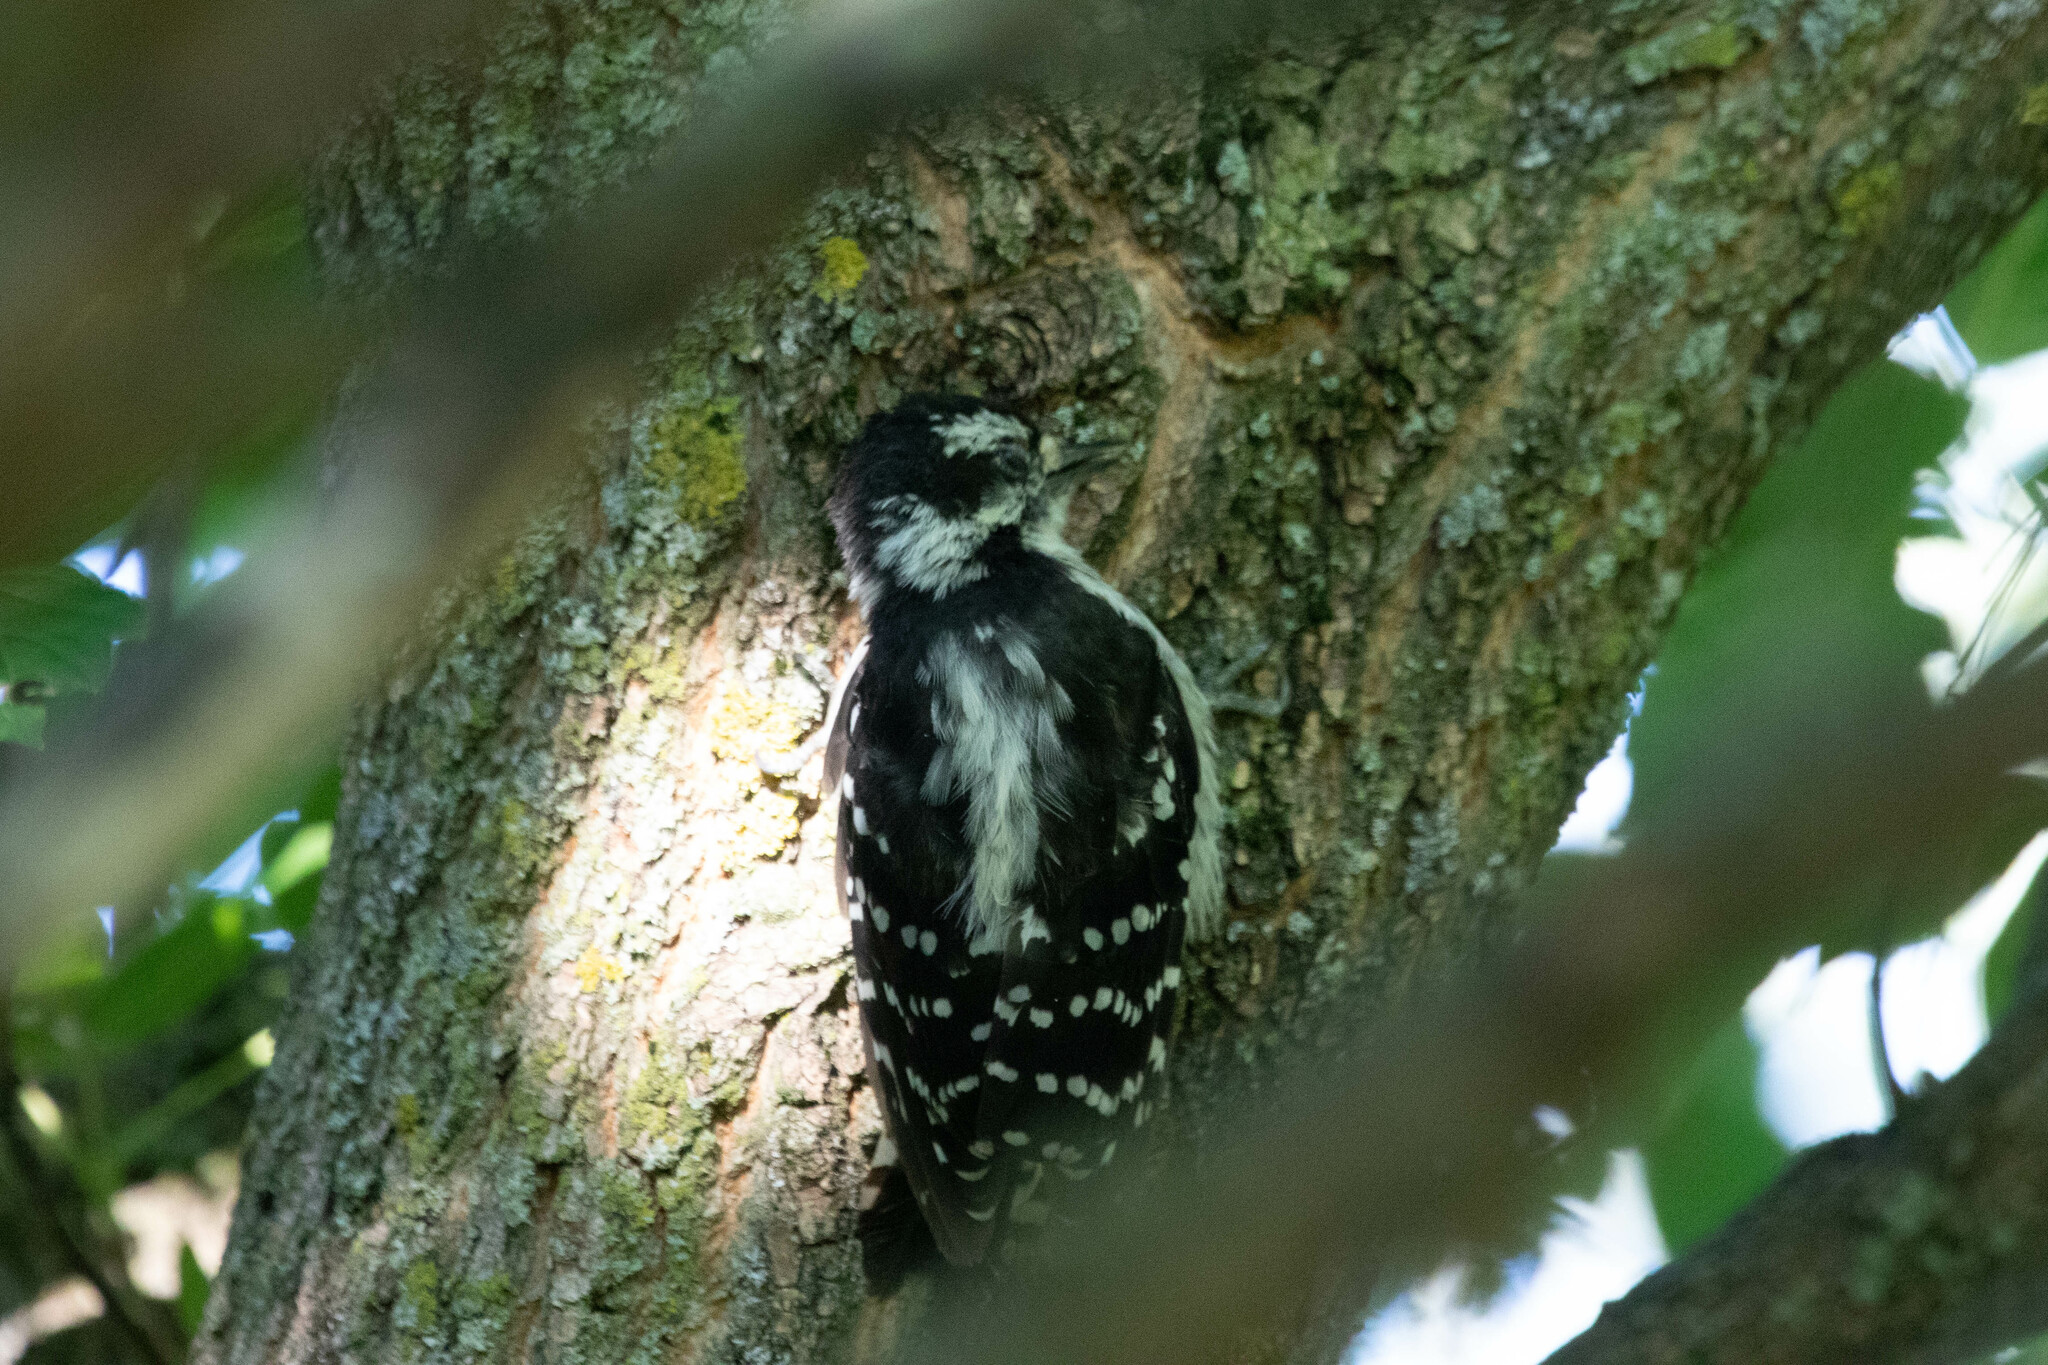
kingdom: Animalia
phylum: Chordata
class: Aves
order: Piciformes
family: Picidae
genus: Dryobates
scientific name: Dryobates pubescens
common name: Downy woodpecker
